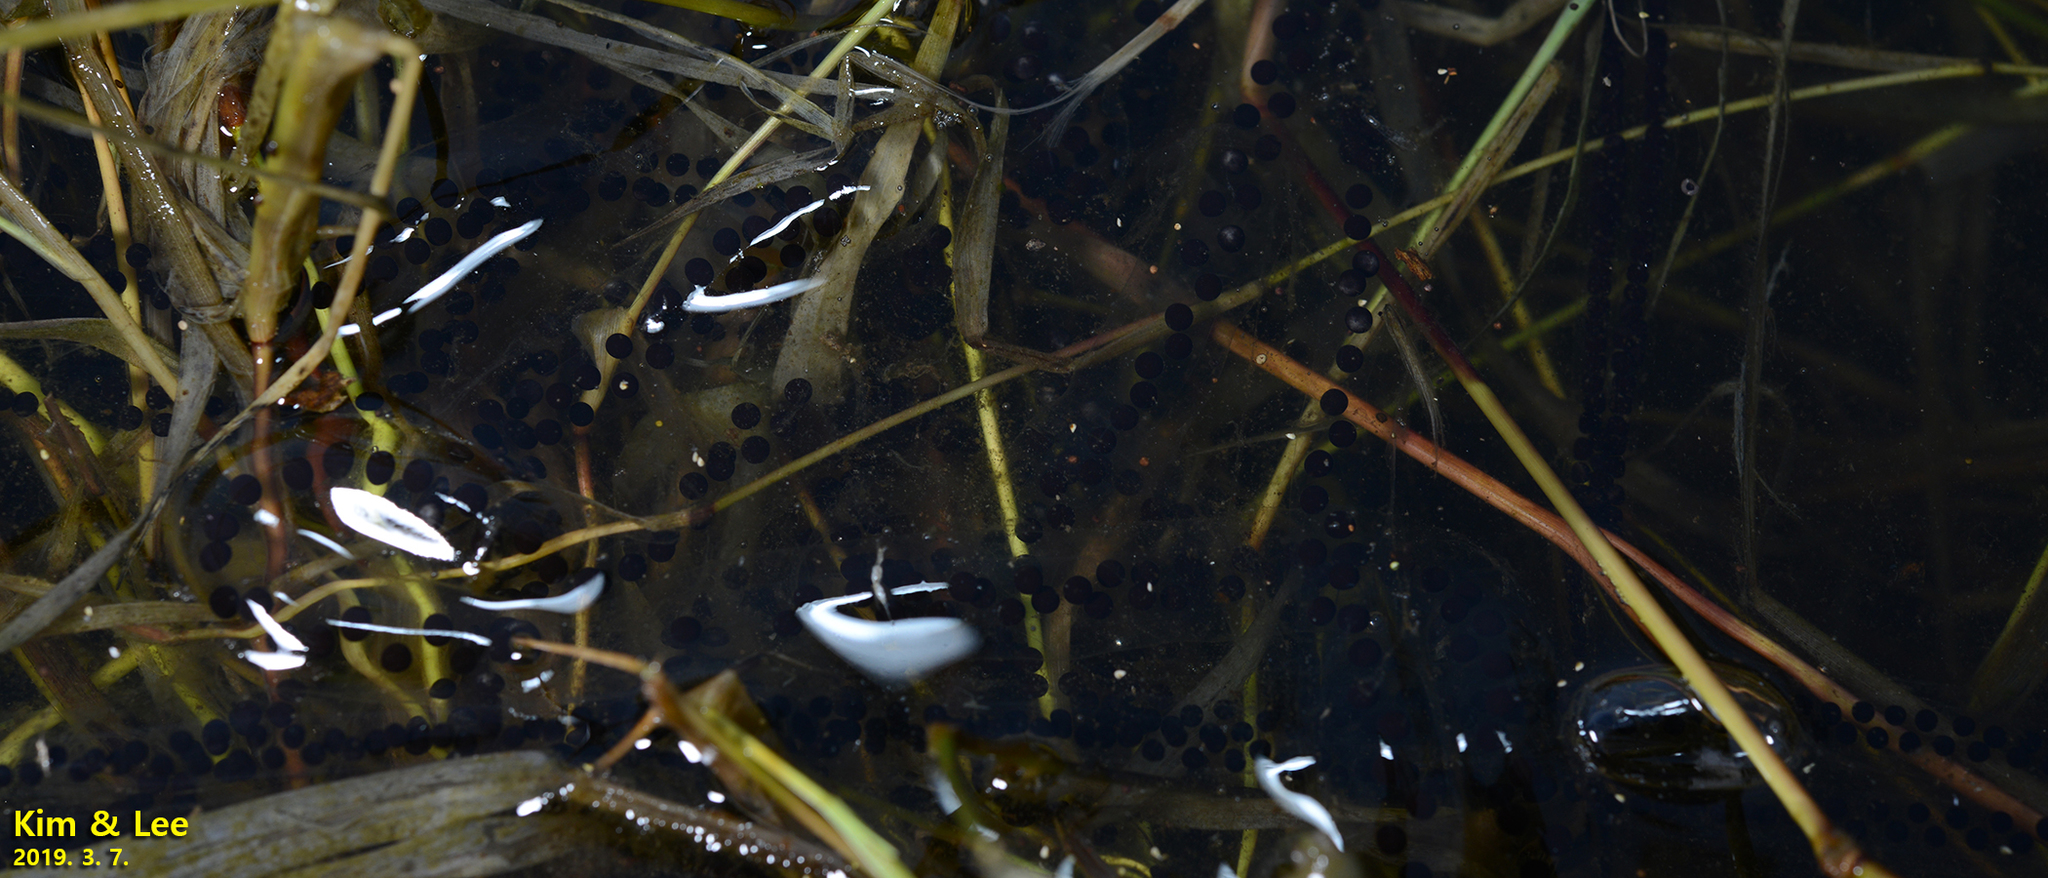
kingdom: Animalia
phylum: Chordata
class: Amphibia
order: Anura
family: Bufonidae
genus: Bufo
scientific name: Bufo gargarizans
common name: Asiatic toad
